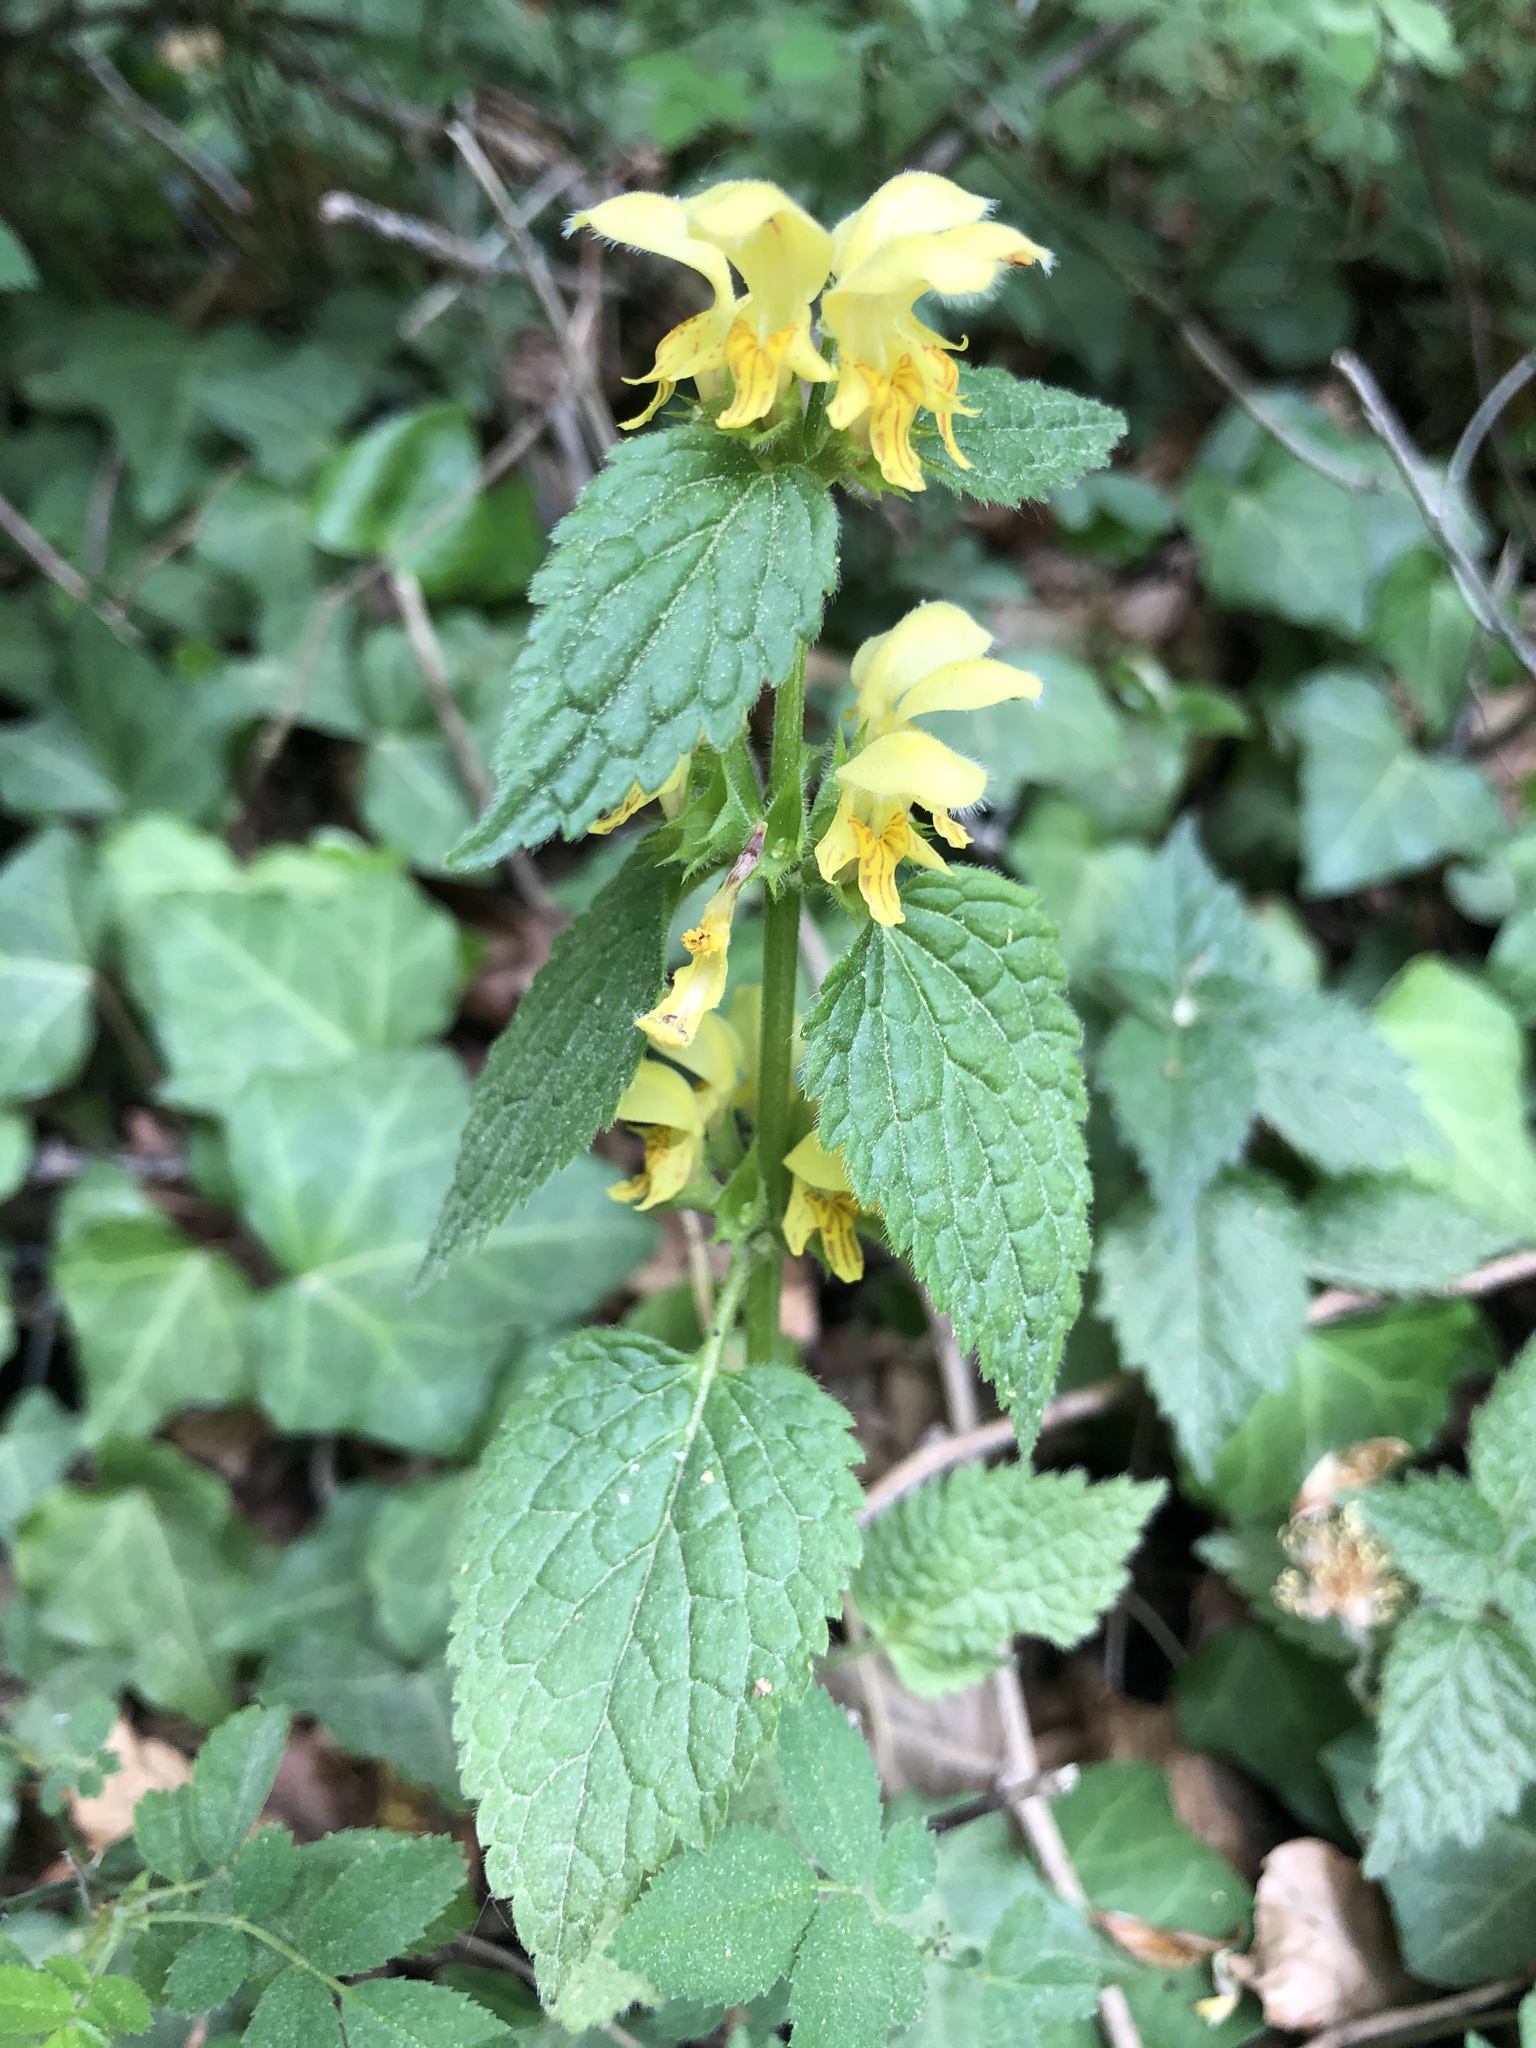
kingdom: Plantae
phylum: Tracheophyta
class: Magnoliopsida
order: Lamiales
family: Lamiaceae
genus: Lamium
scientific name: Lamium galeobdolon
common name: Yellow archangel
